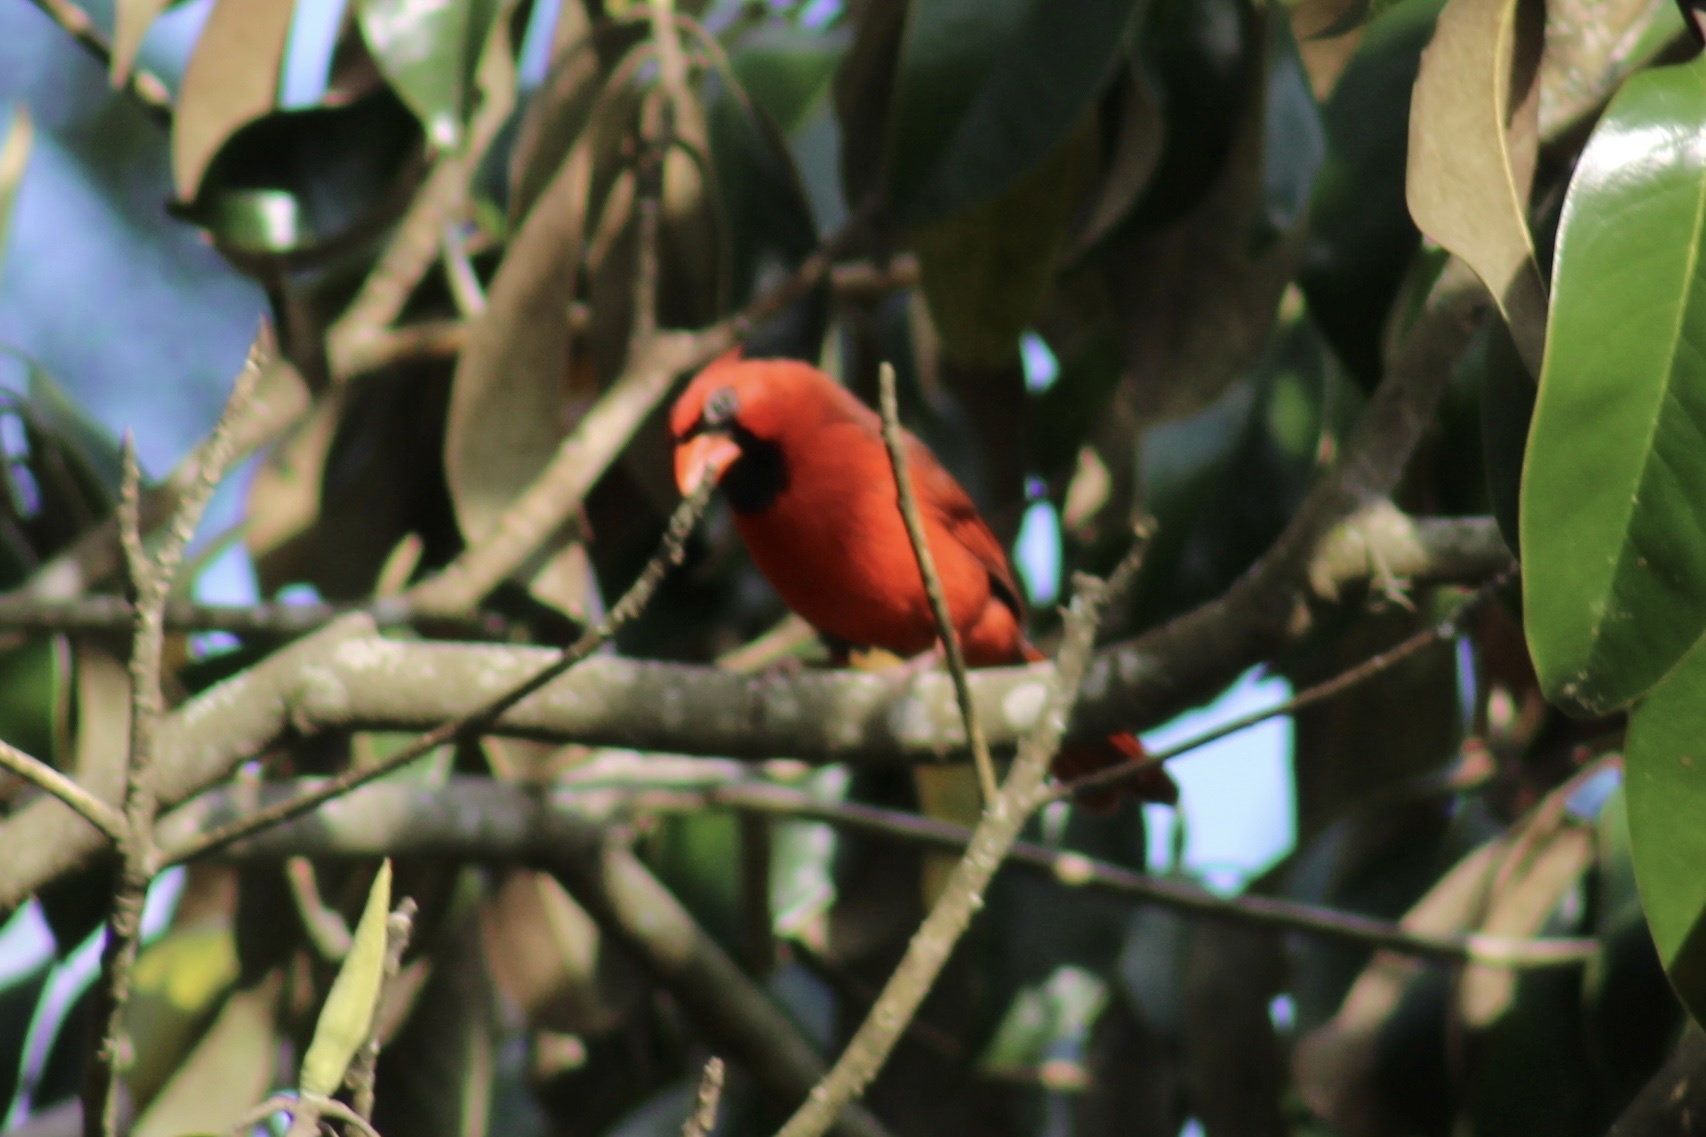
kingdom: Animalia
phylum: Chordata
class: Aves
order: Passeriformes
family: Cardinalidae
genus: Cardinalis
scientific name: Cardinalis cardinalis
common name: Northern cardinal
